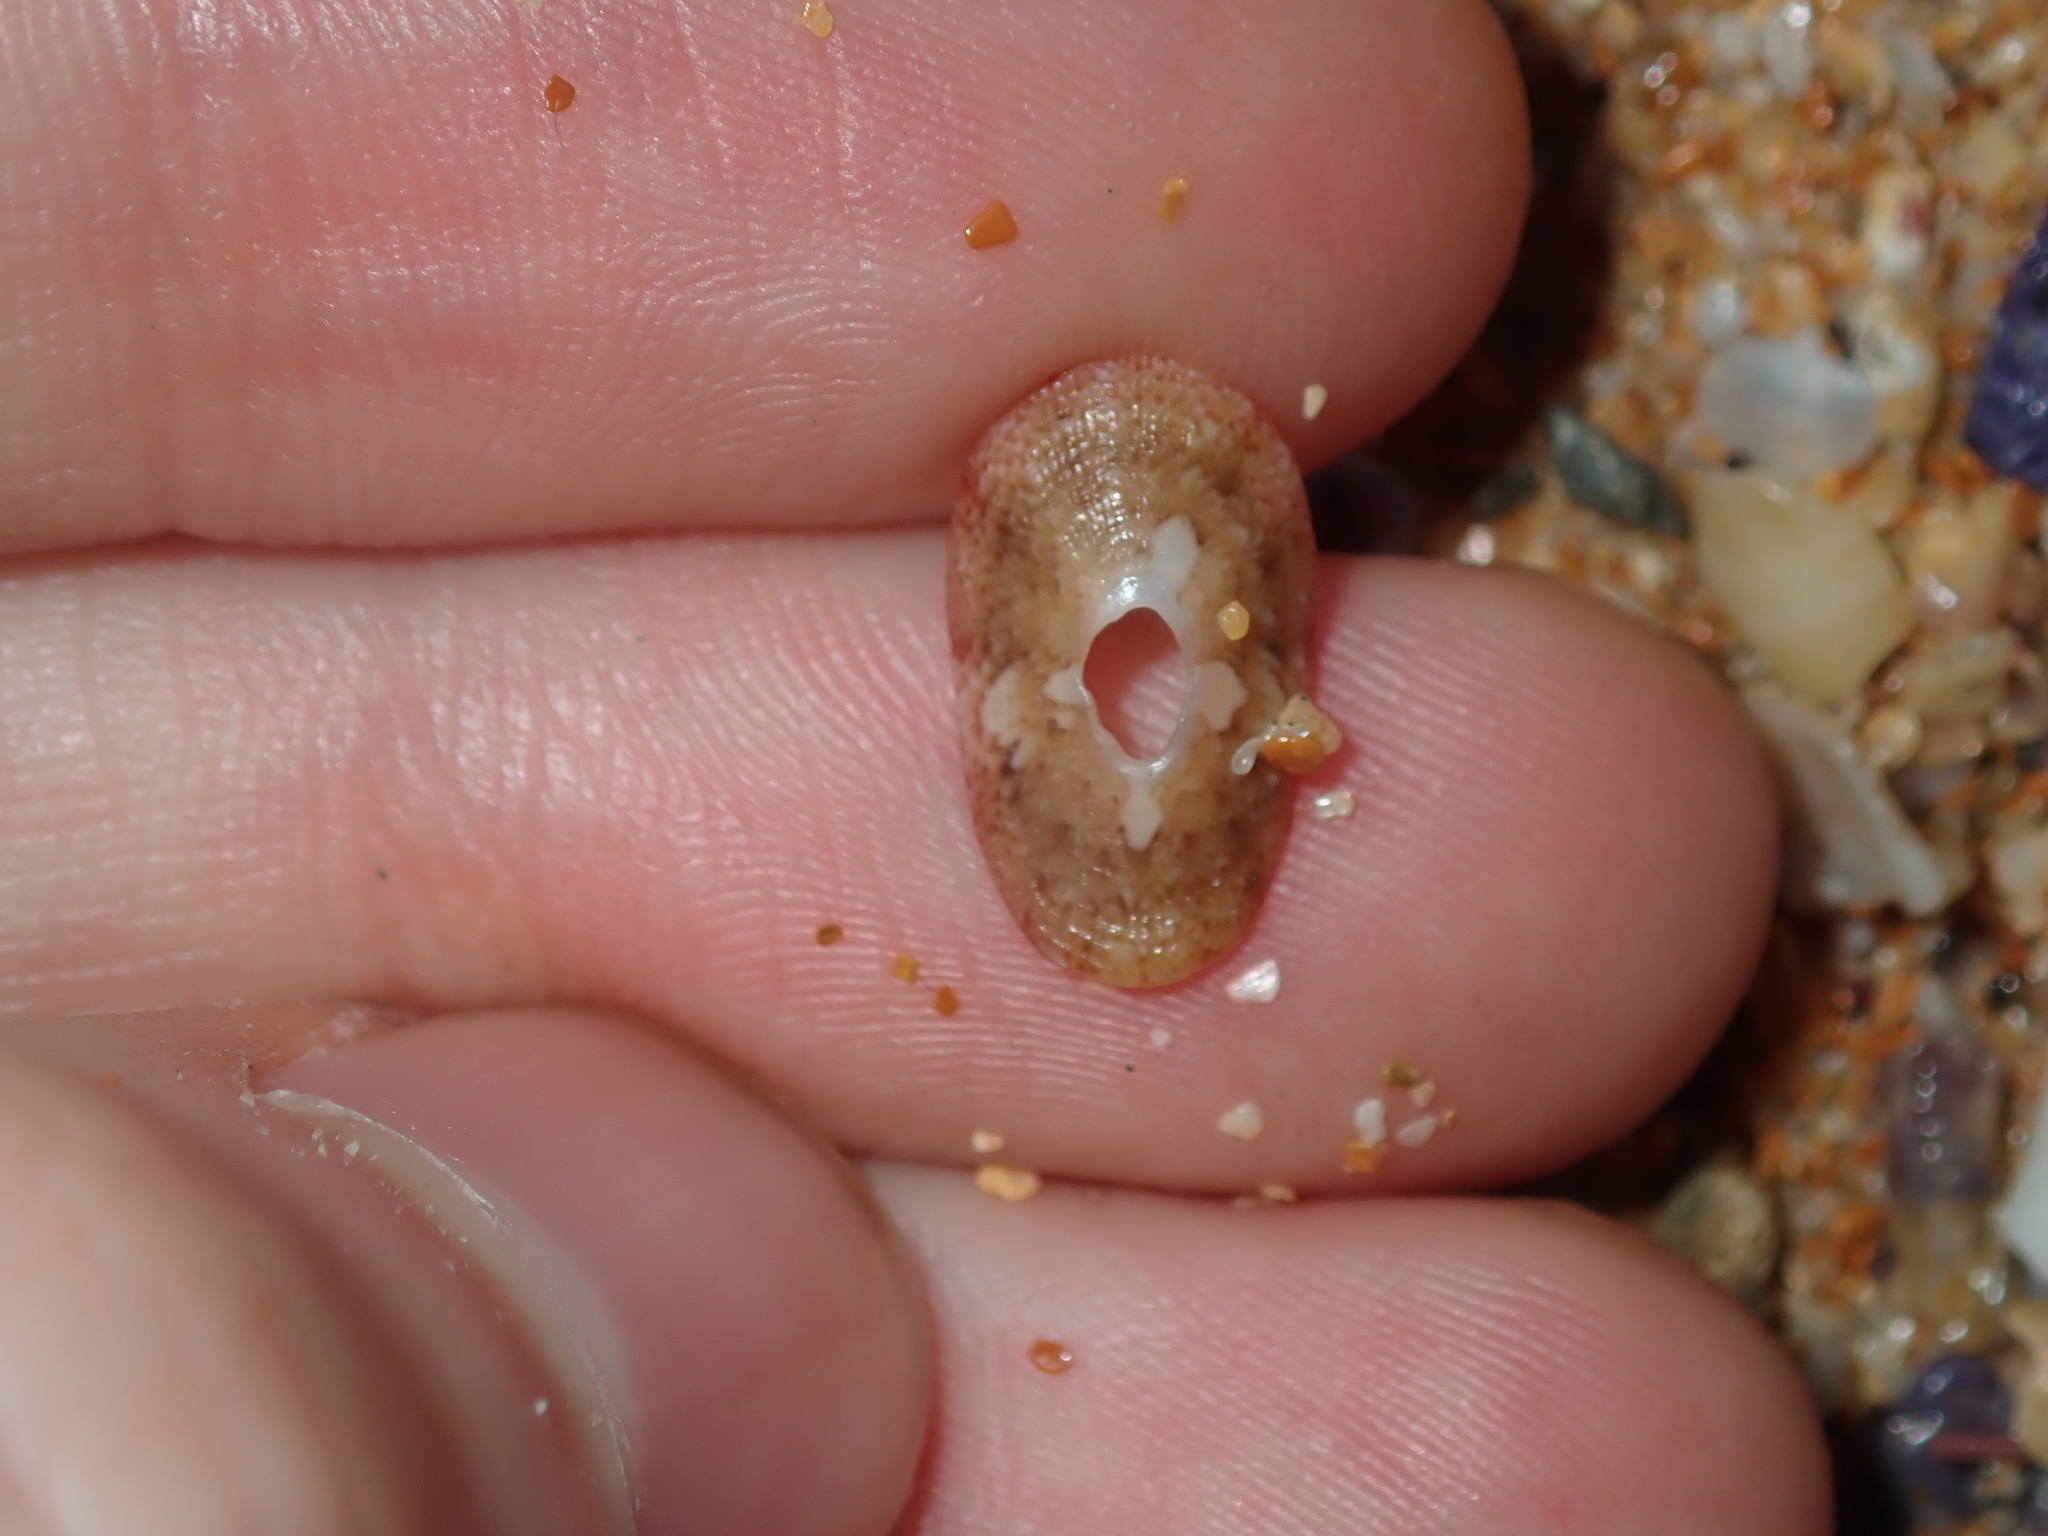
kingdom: Animalia
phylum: Mollusca
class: Gastropoda
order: Lepetellida
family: Fissurellidae
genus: Amblychilepas
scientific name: Amblychilepas nigrita
